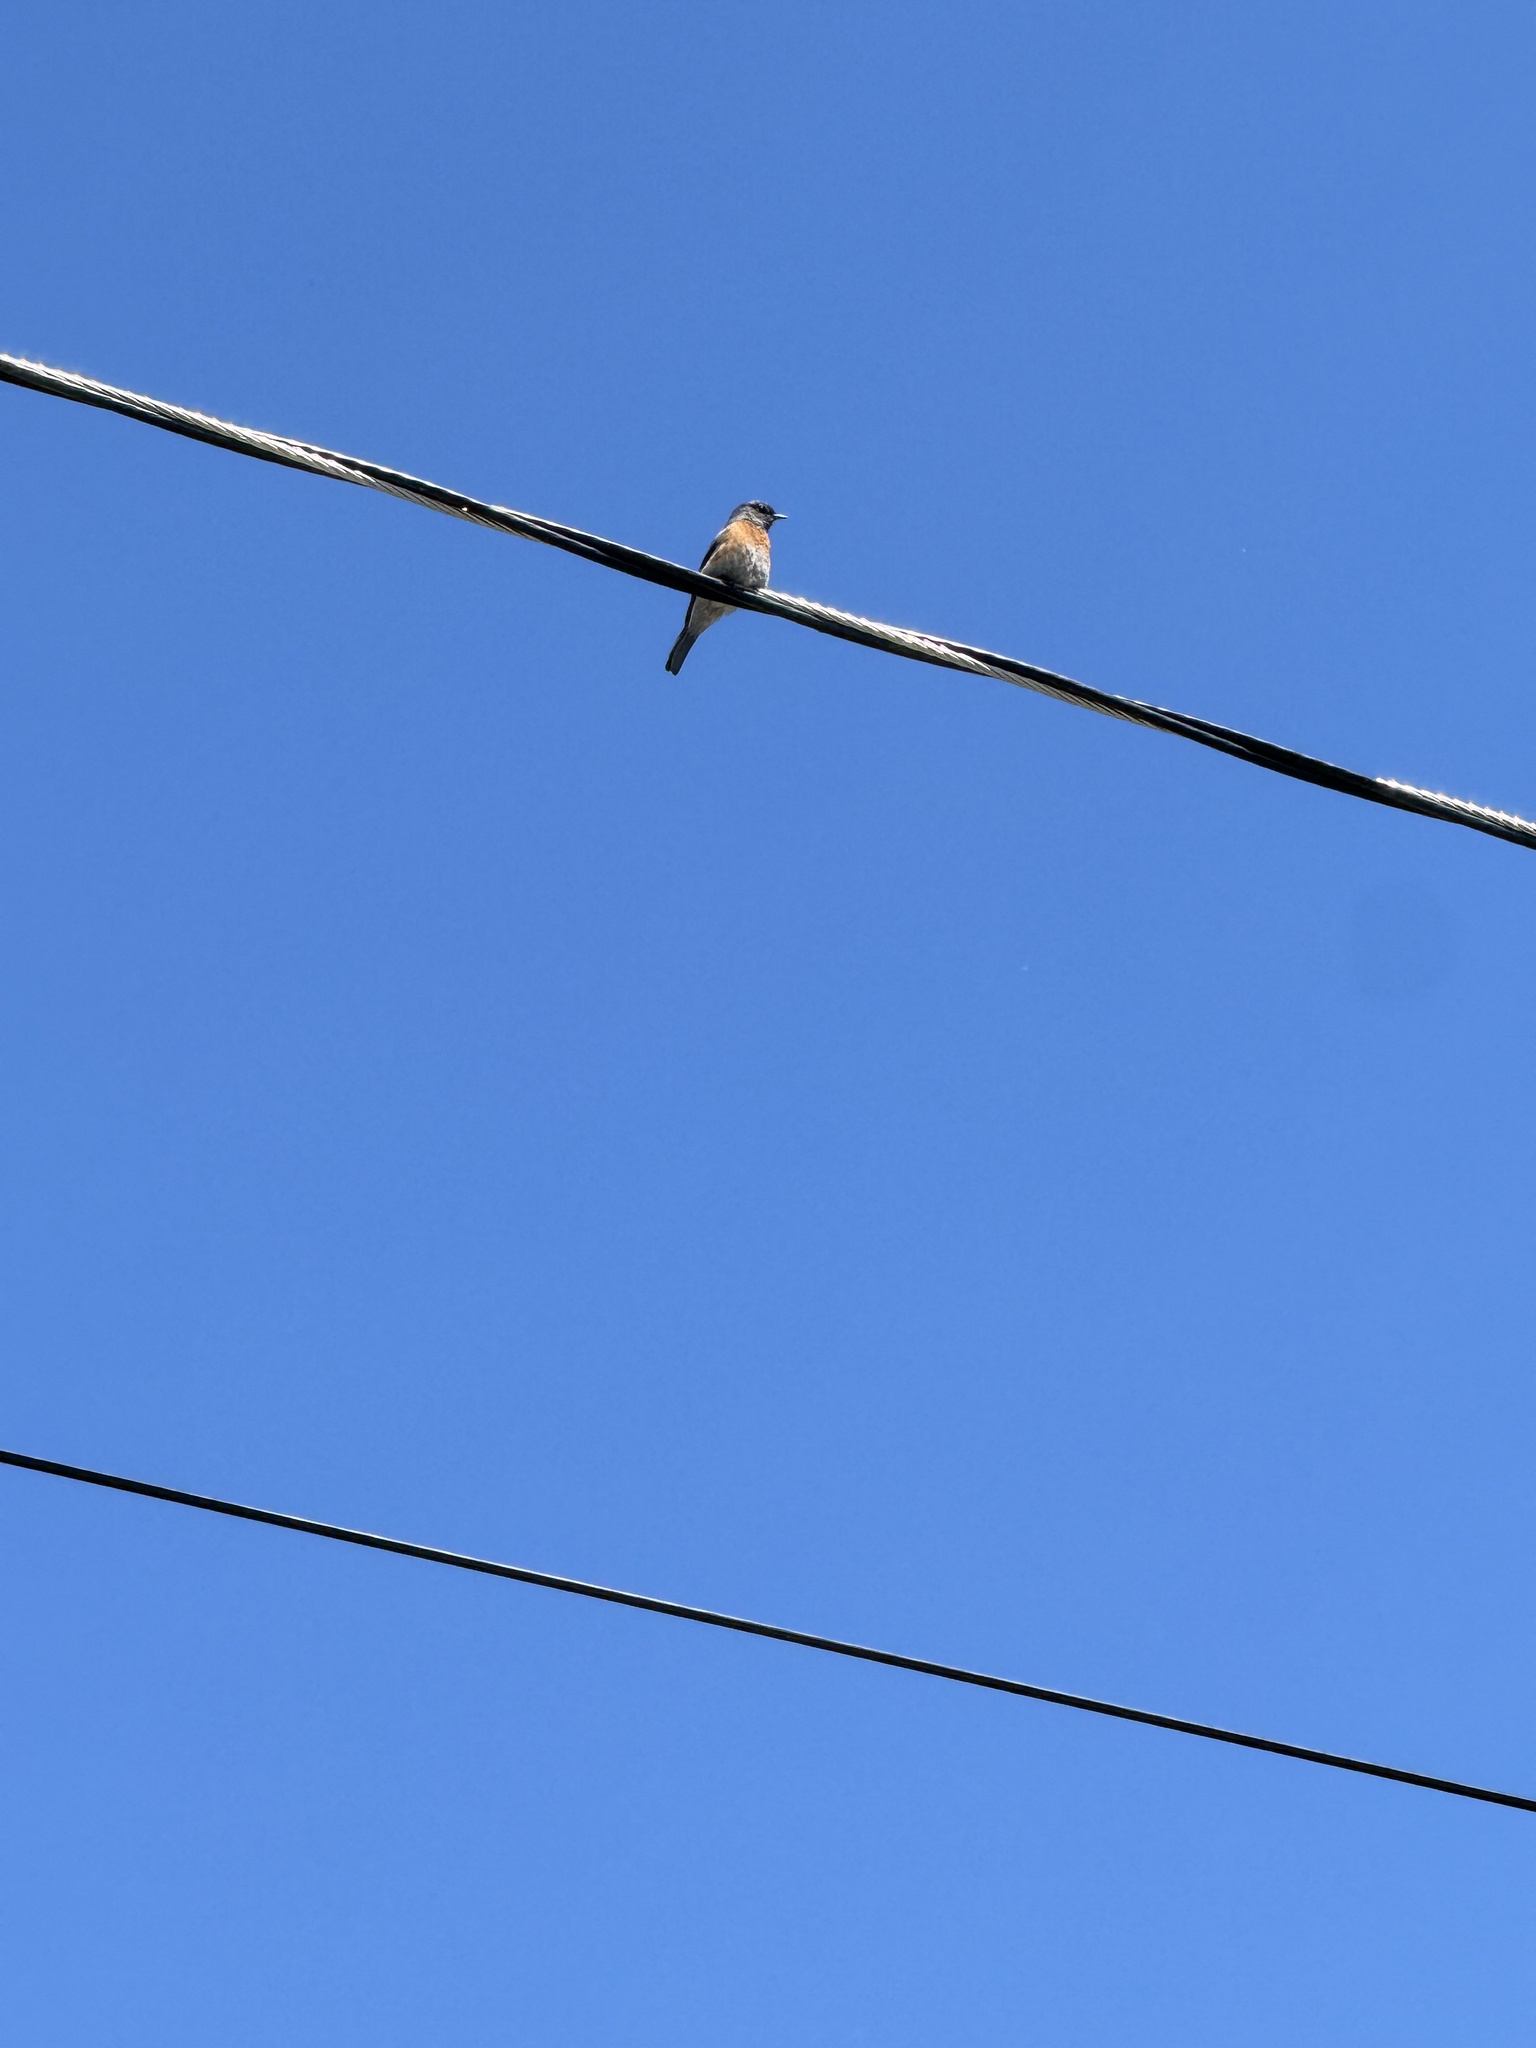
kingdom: Animalia
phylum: Chordata
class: Aves
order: Passeriformes
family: Turdidae
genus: Sialia
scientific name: Sialia mexicana
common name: Western bluebird
